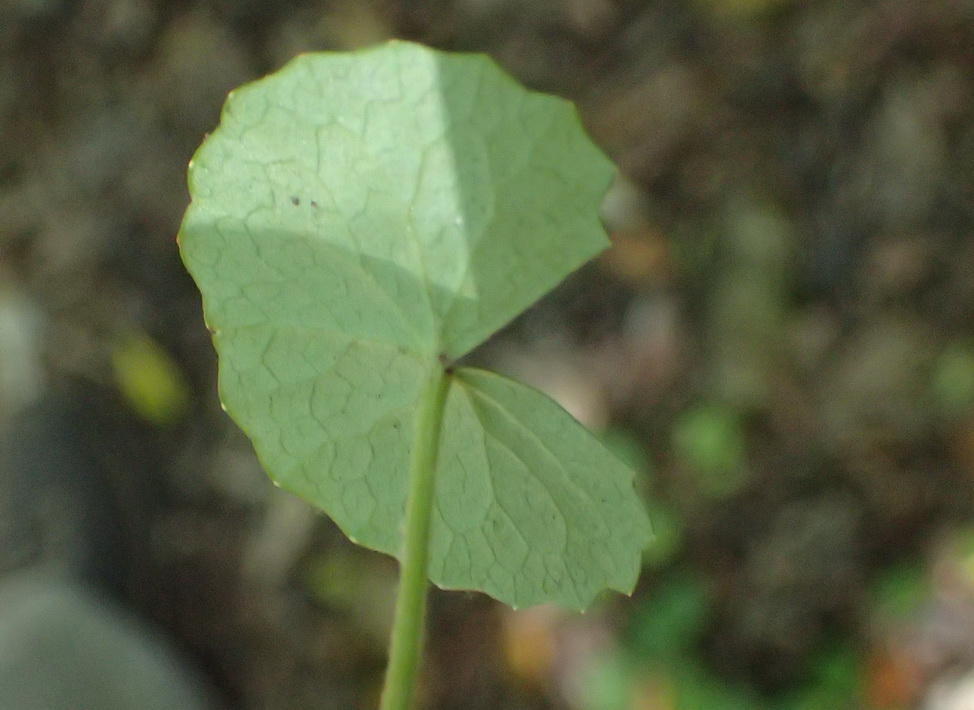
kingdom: Plantae
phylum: Tracheophyta
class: Magnoliopsida
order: Apiales
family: Apiaceae
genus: Centella
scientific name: Centella asiatica
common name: Spadeleaf
